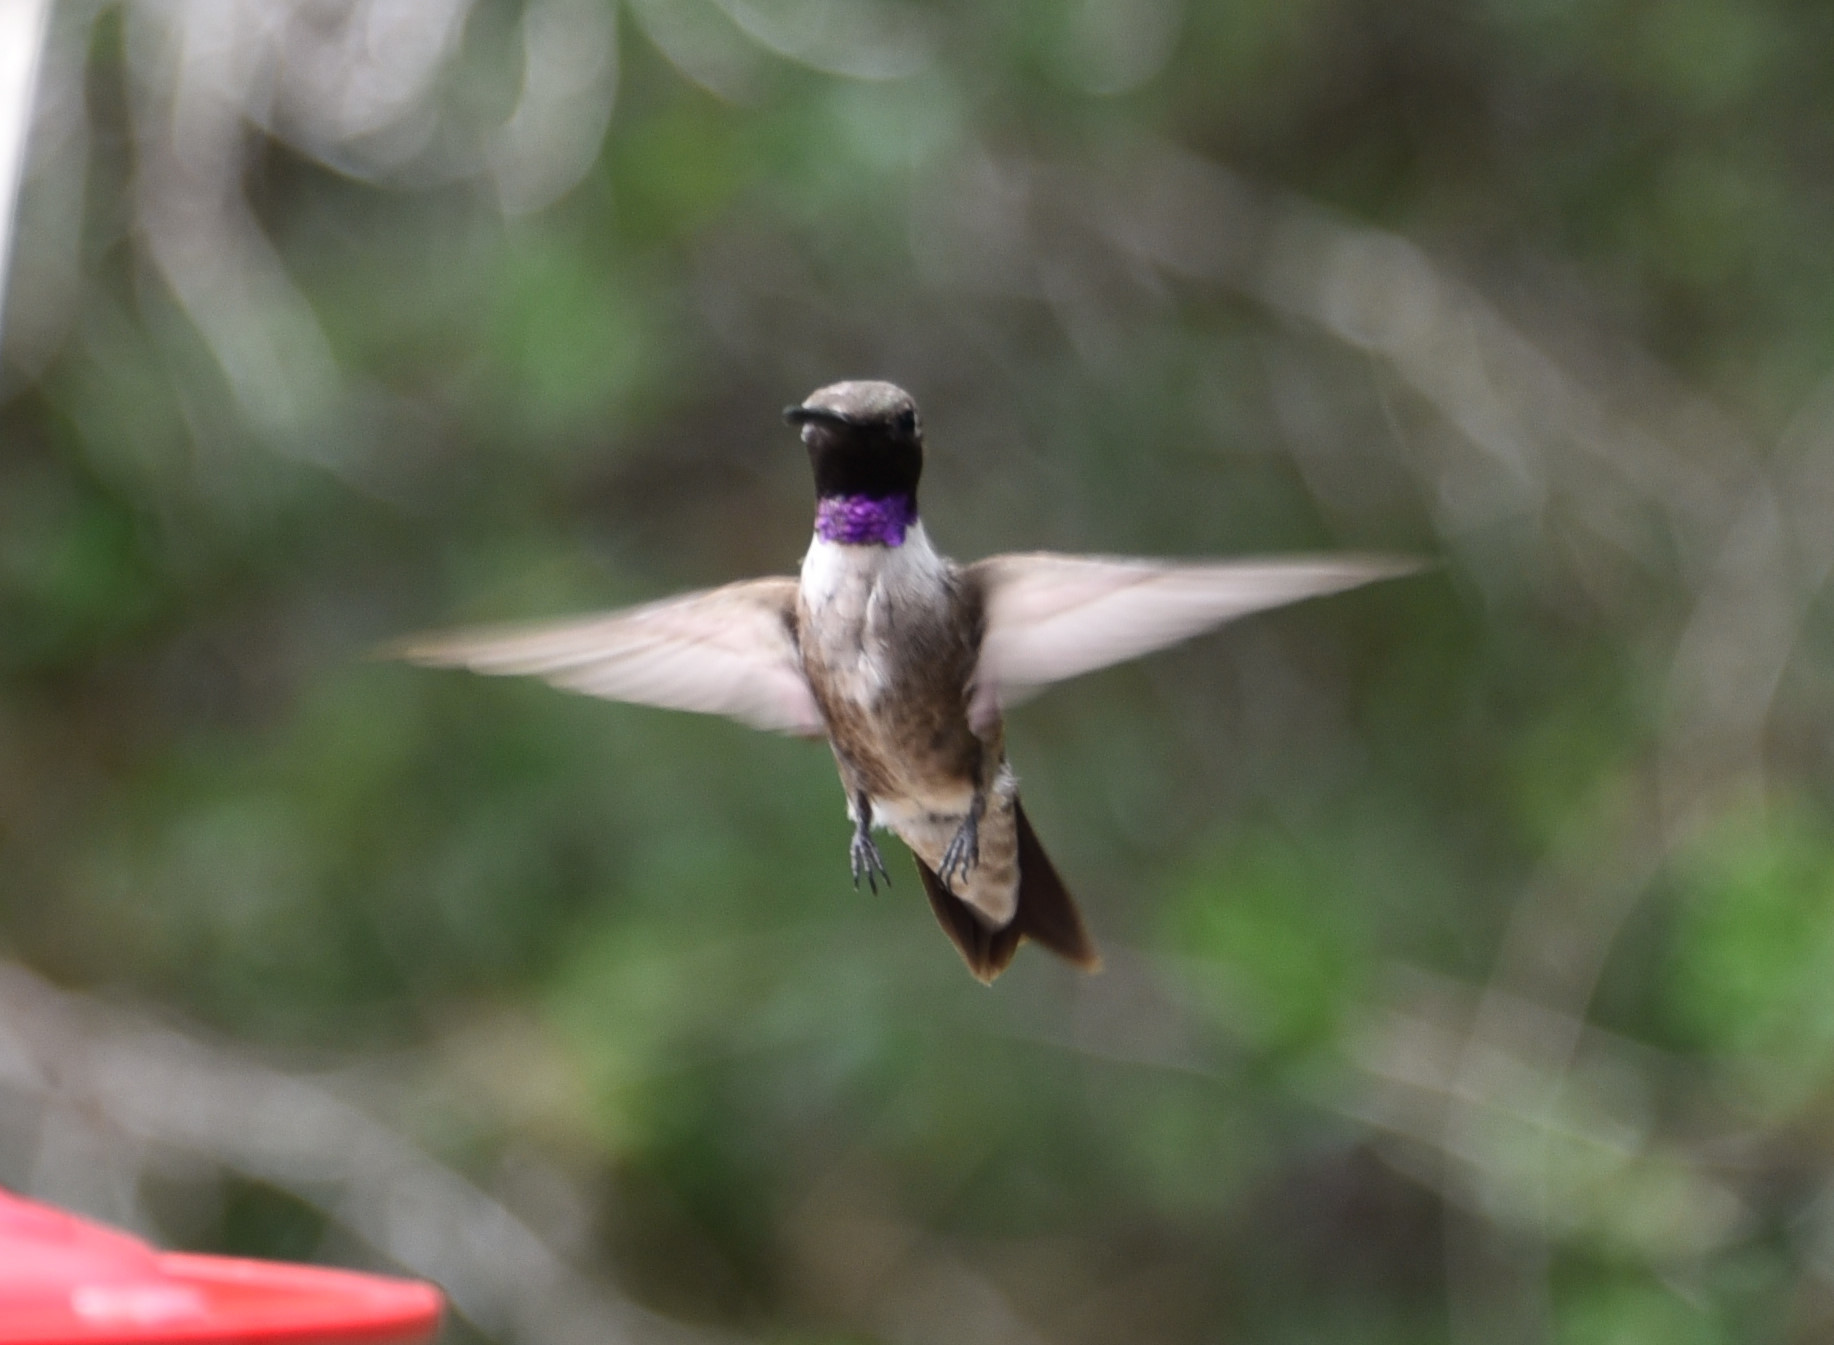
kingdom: Animalia
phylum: Chordata
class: Aves
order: Apodiformes
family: Trochilidae
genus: Archilochus
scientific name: Archilochus alexandri
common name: Black-chinned hummingbird
